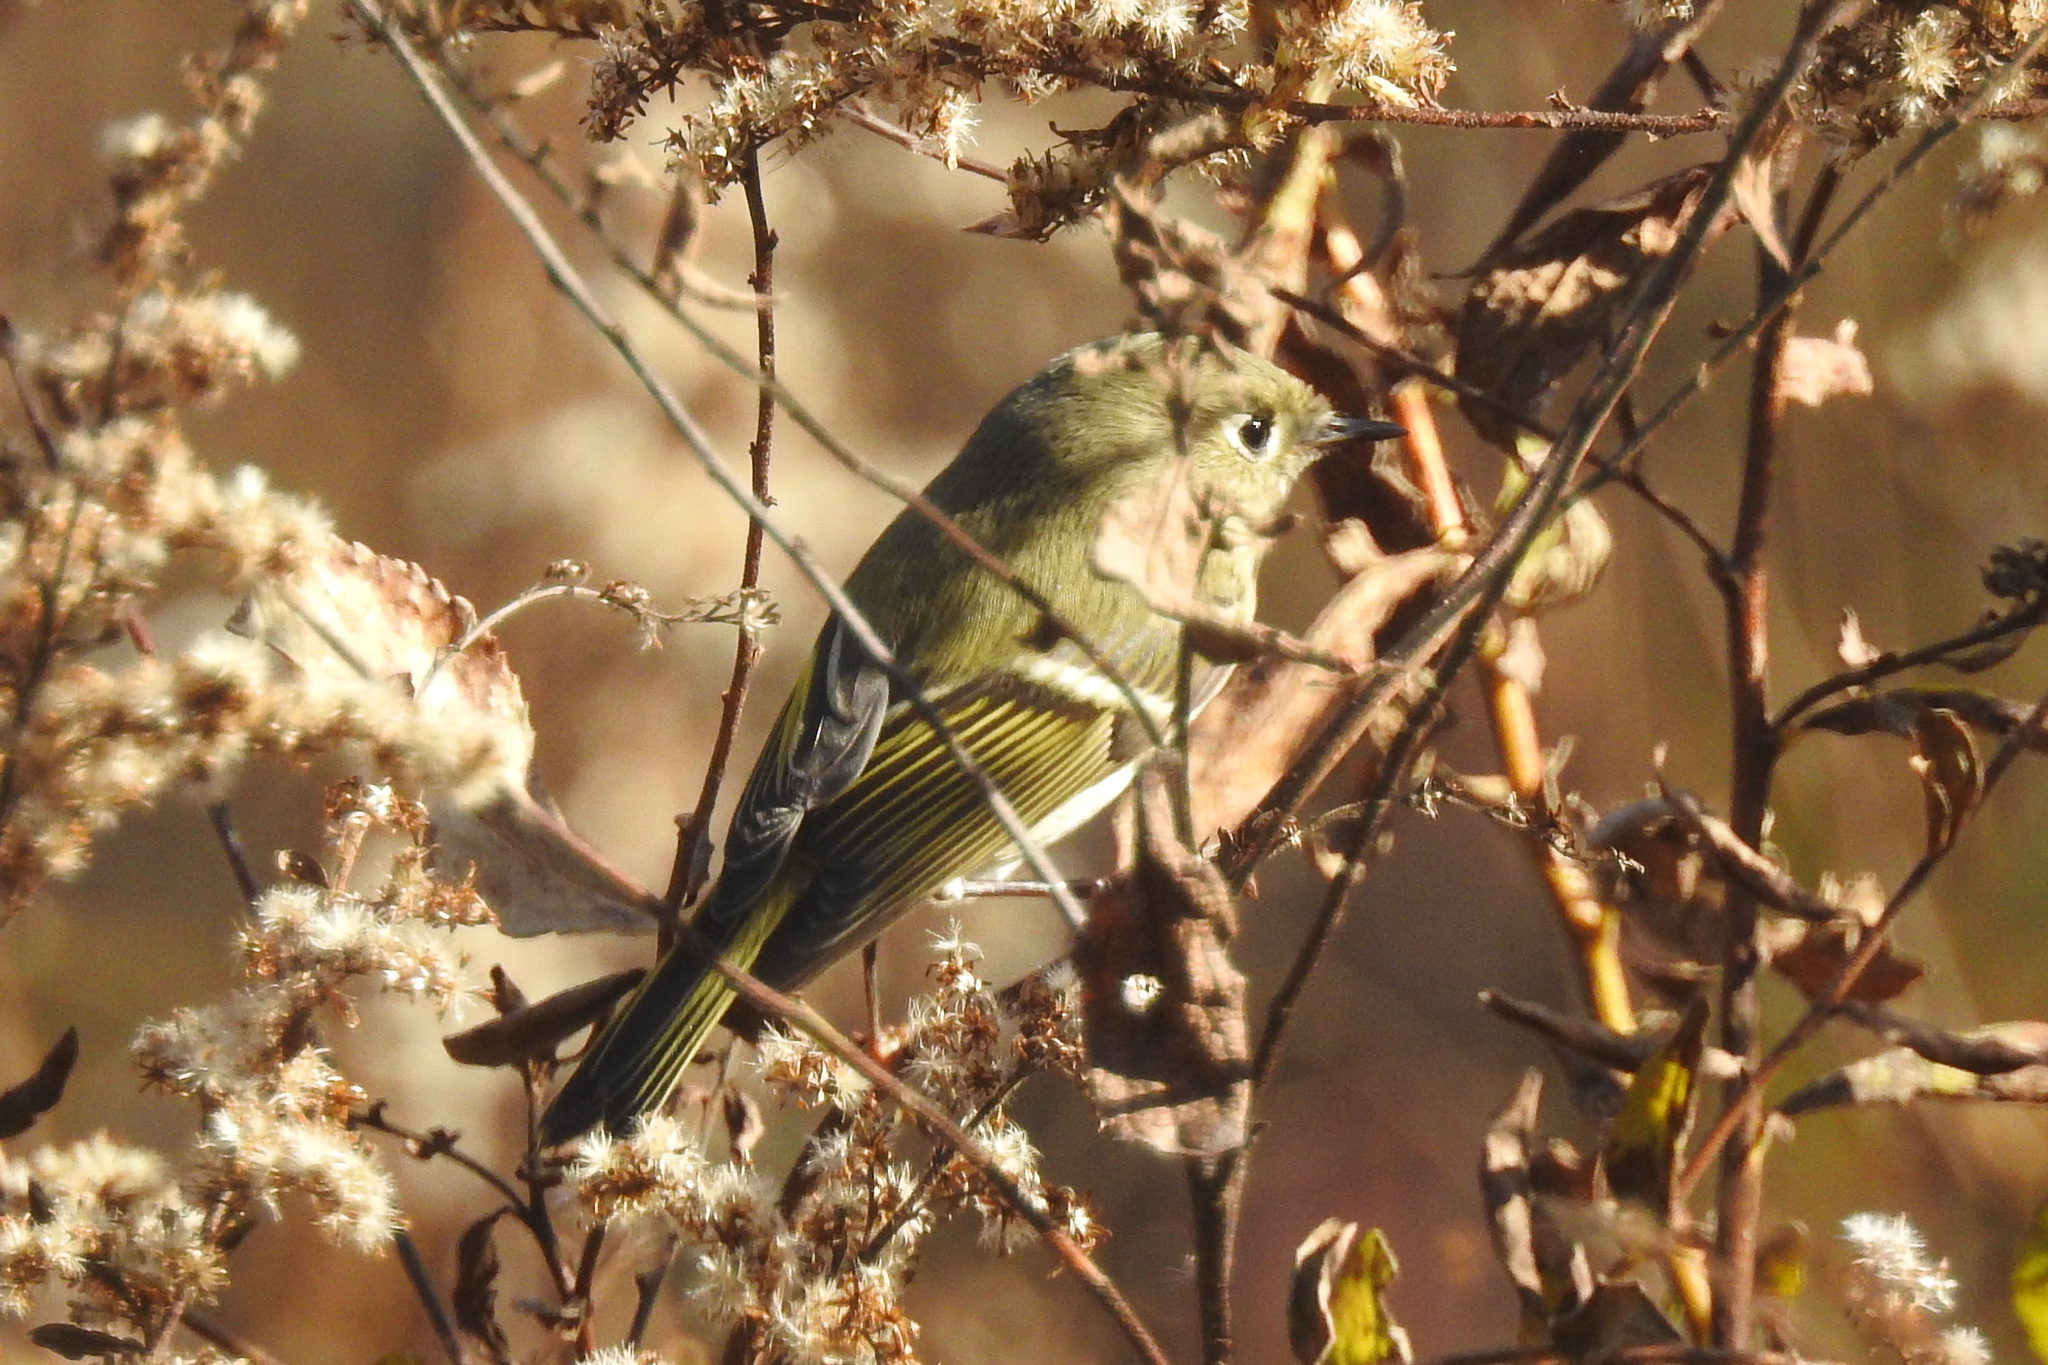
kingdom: Animalia
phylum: Chordata
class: Aves
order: Passeriformes
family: Regulidae
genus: Regulus
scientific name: Regulus calendula
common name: Ruby-crowned kinglet
